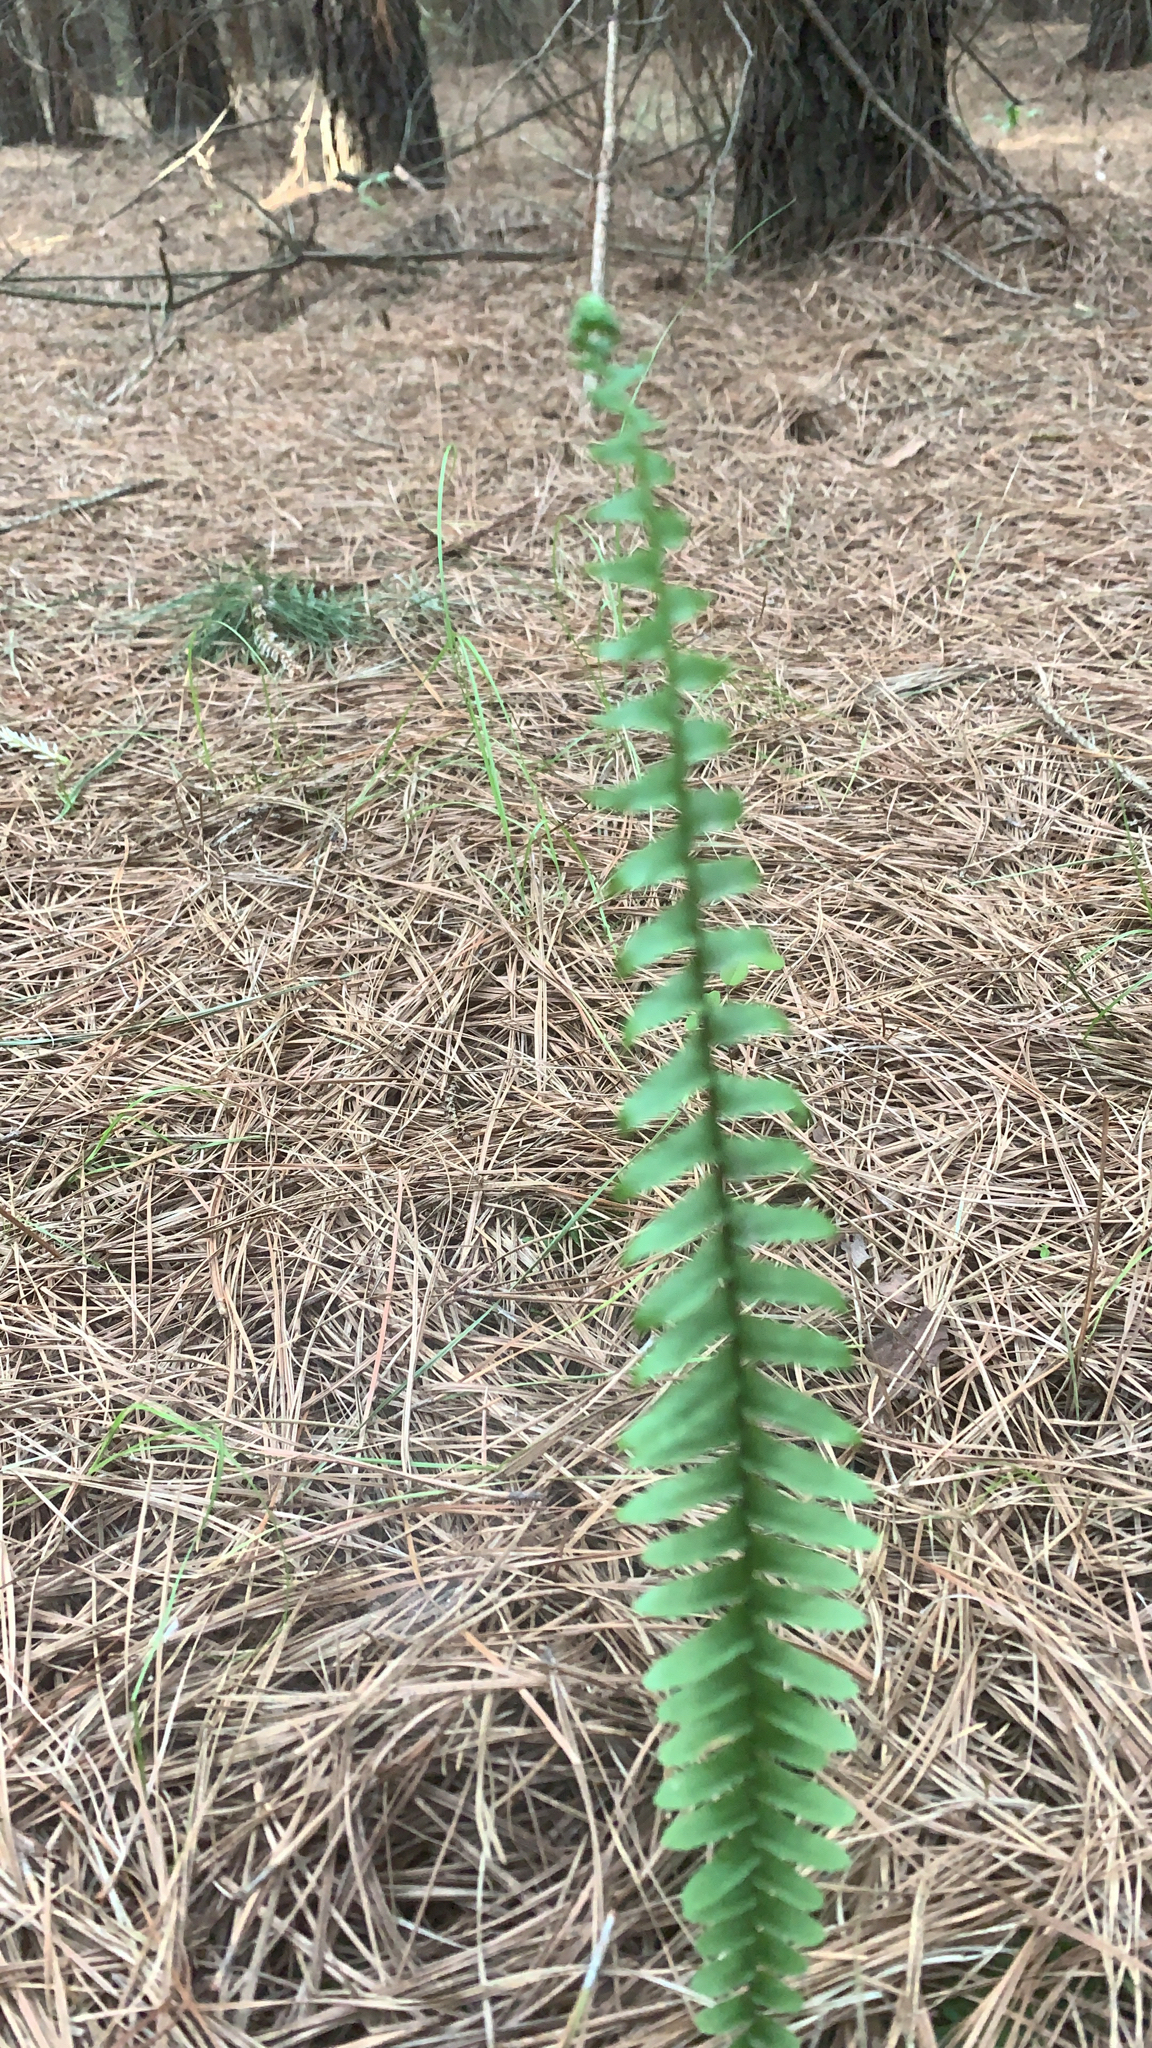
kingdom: Plantae
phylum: Tracheophyta
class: Polypodiopsida
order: Polypodiales
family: Aspleniaceae
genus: Asplenium
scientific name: Asplenium platyneuron
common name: Ebony spleenwort
